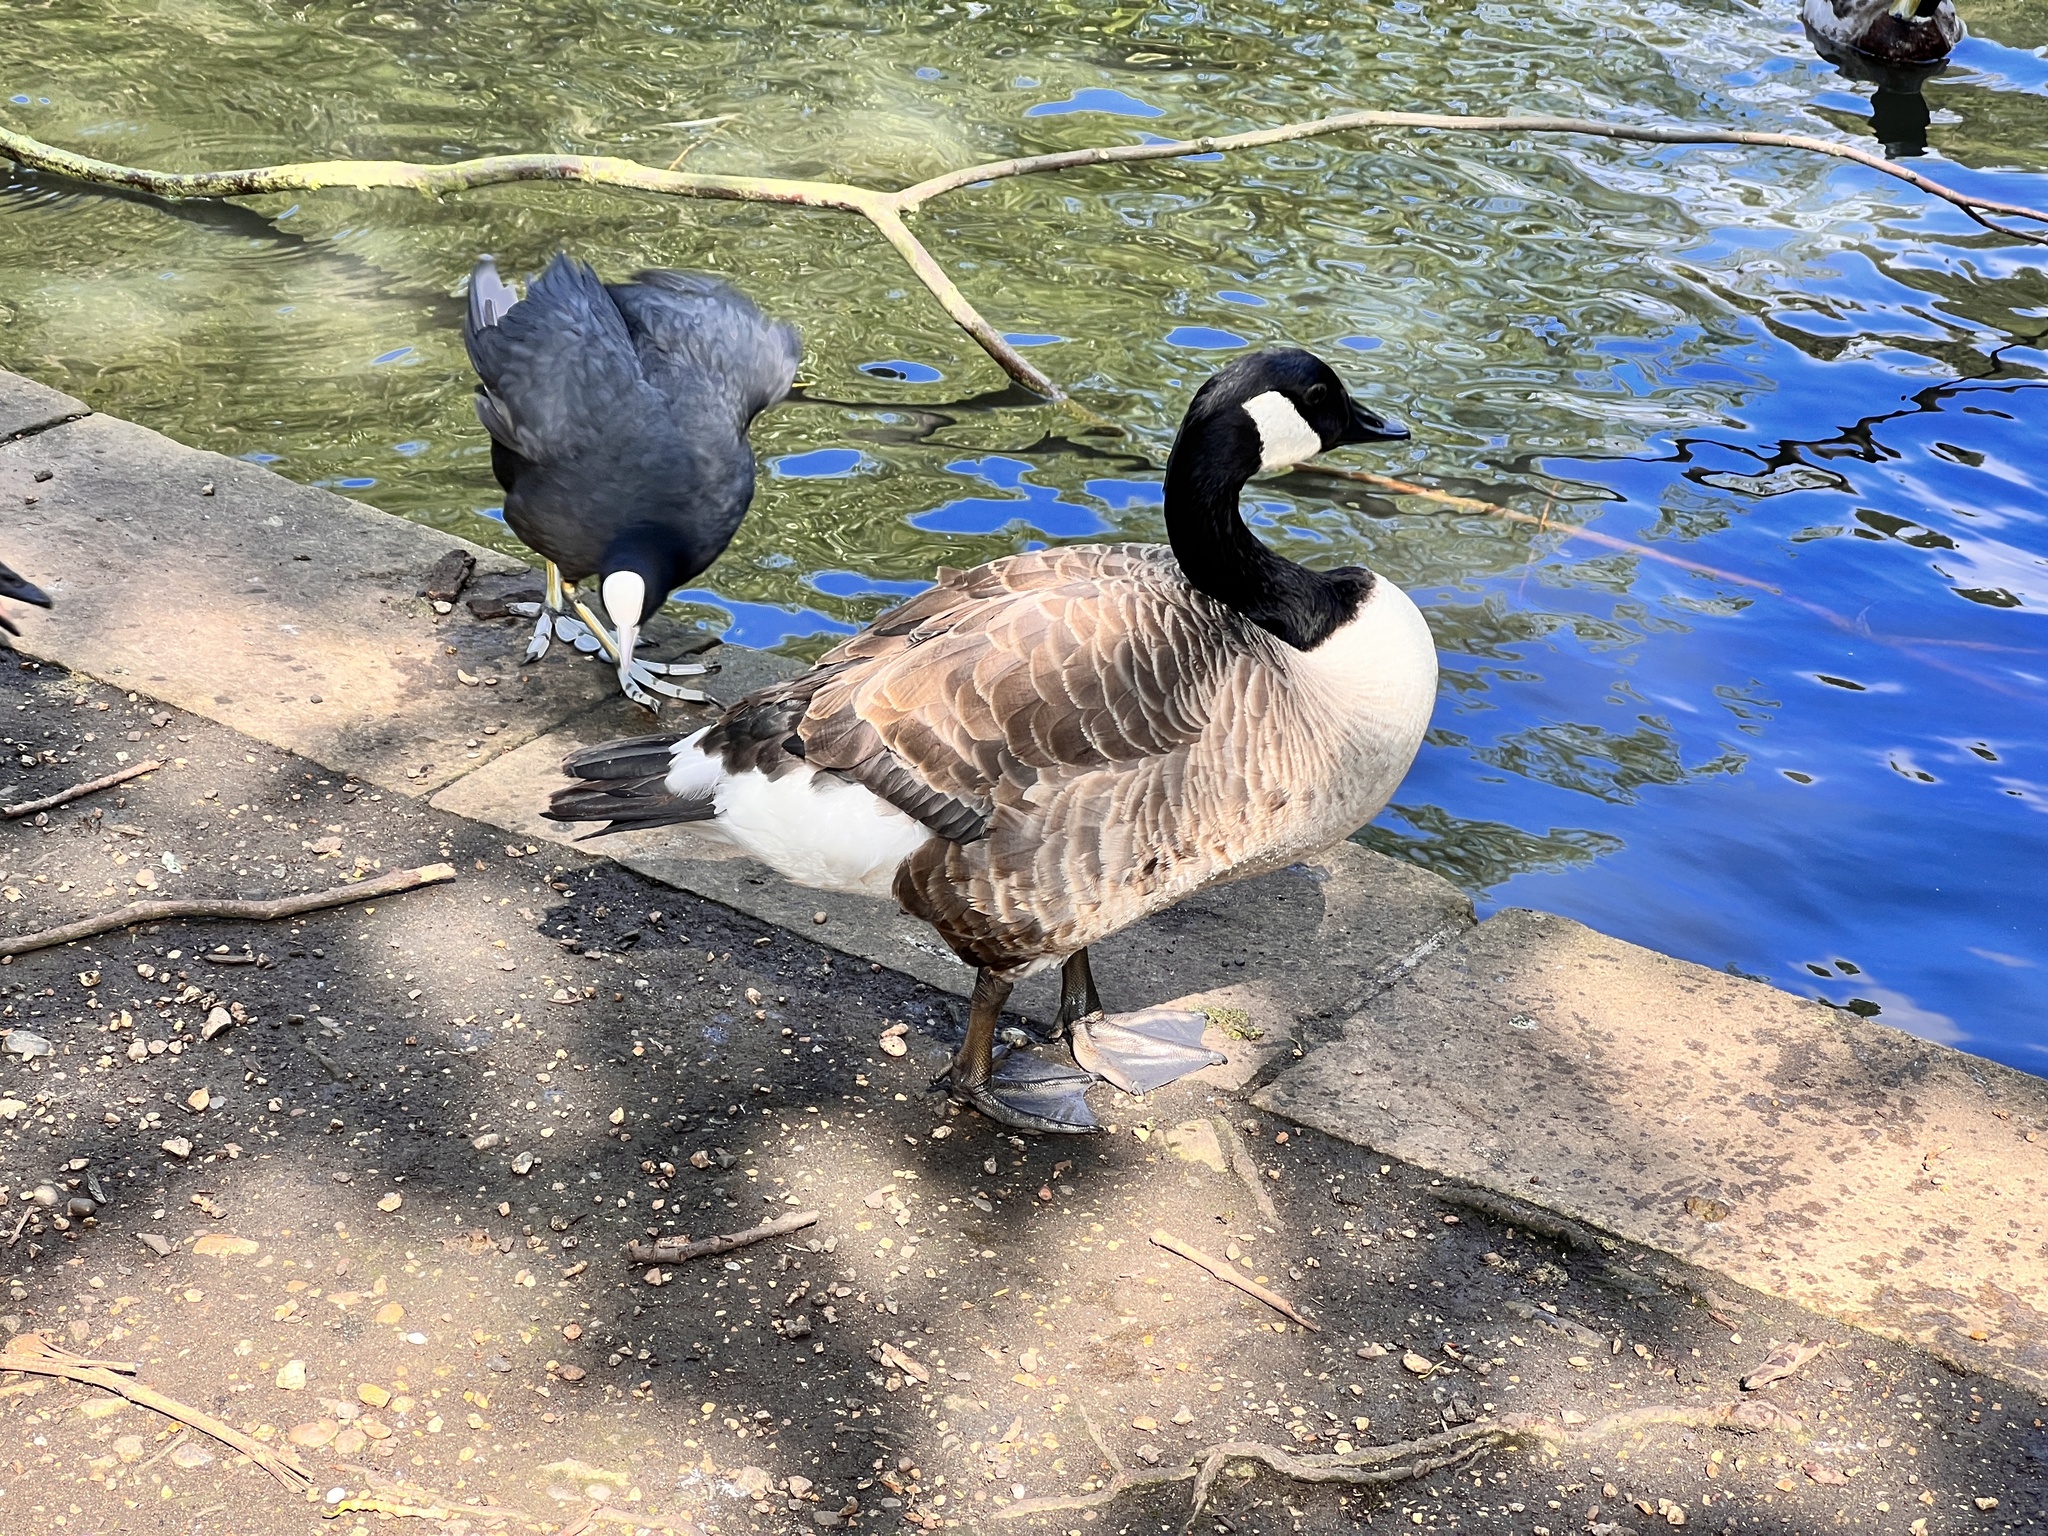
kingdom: Animalia
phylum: Chordata
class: Aves
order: Anseriformes
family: Anatidae
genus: Branta
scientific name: Branta canadensis
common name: Canada goose
